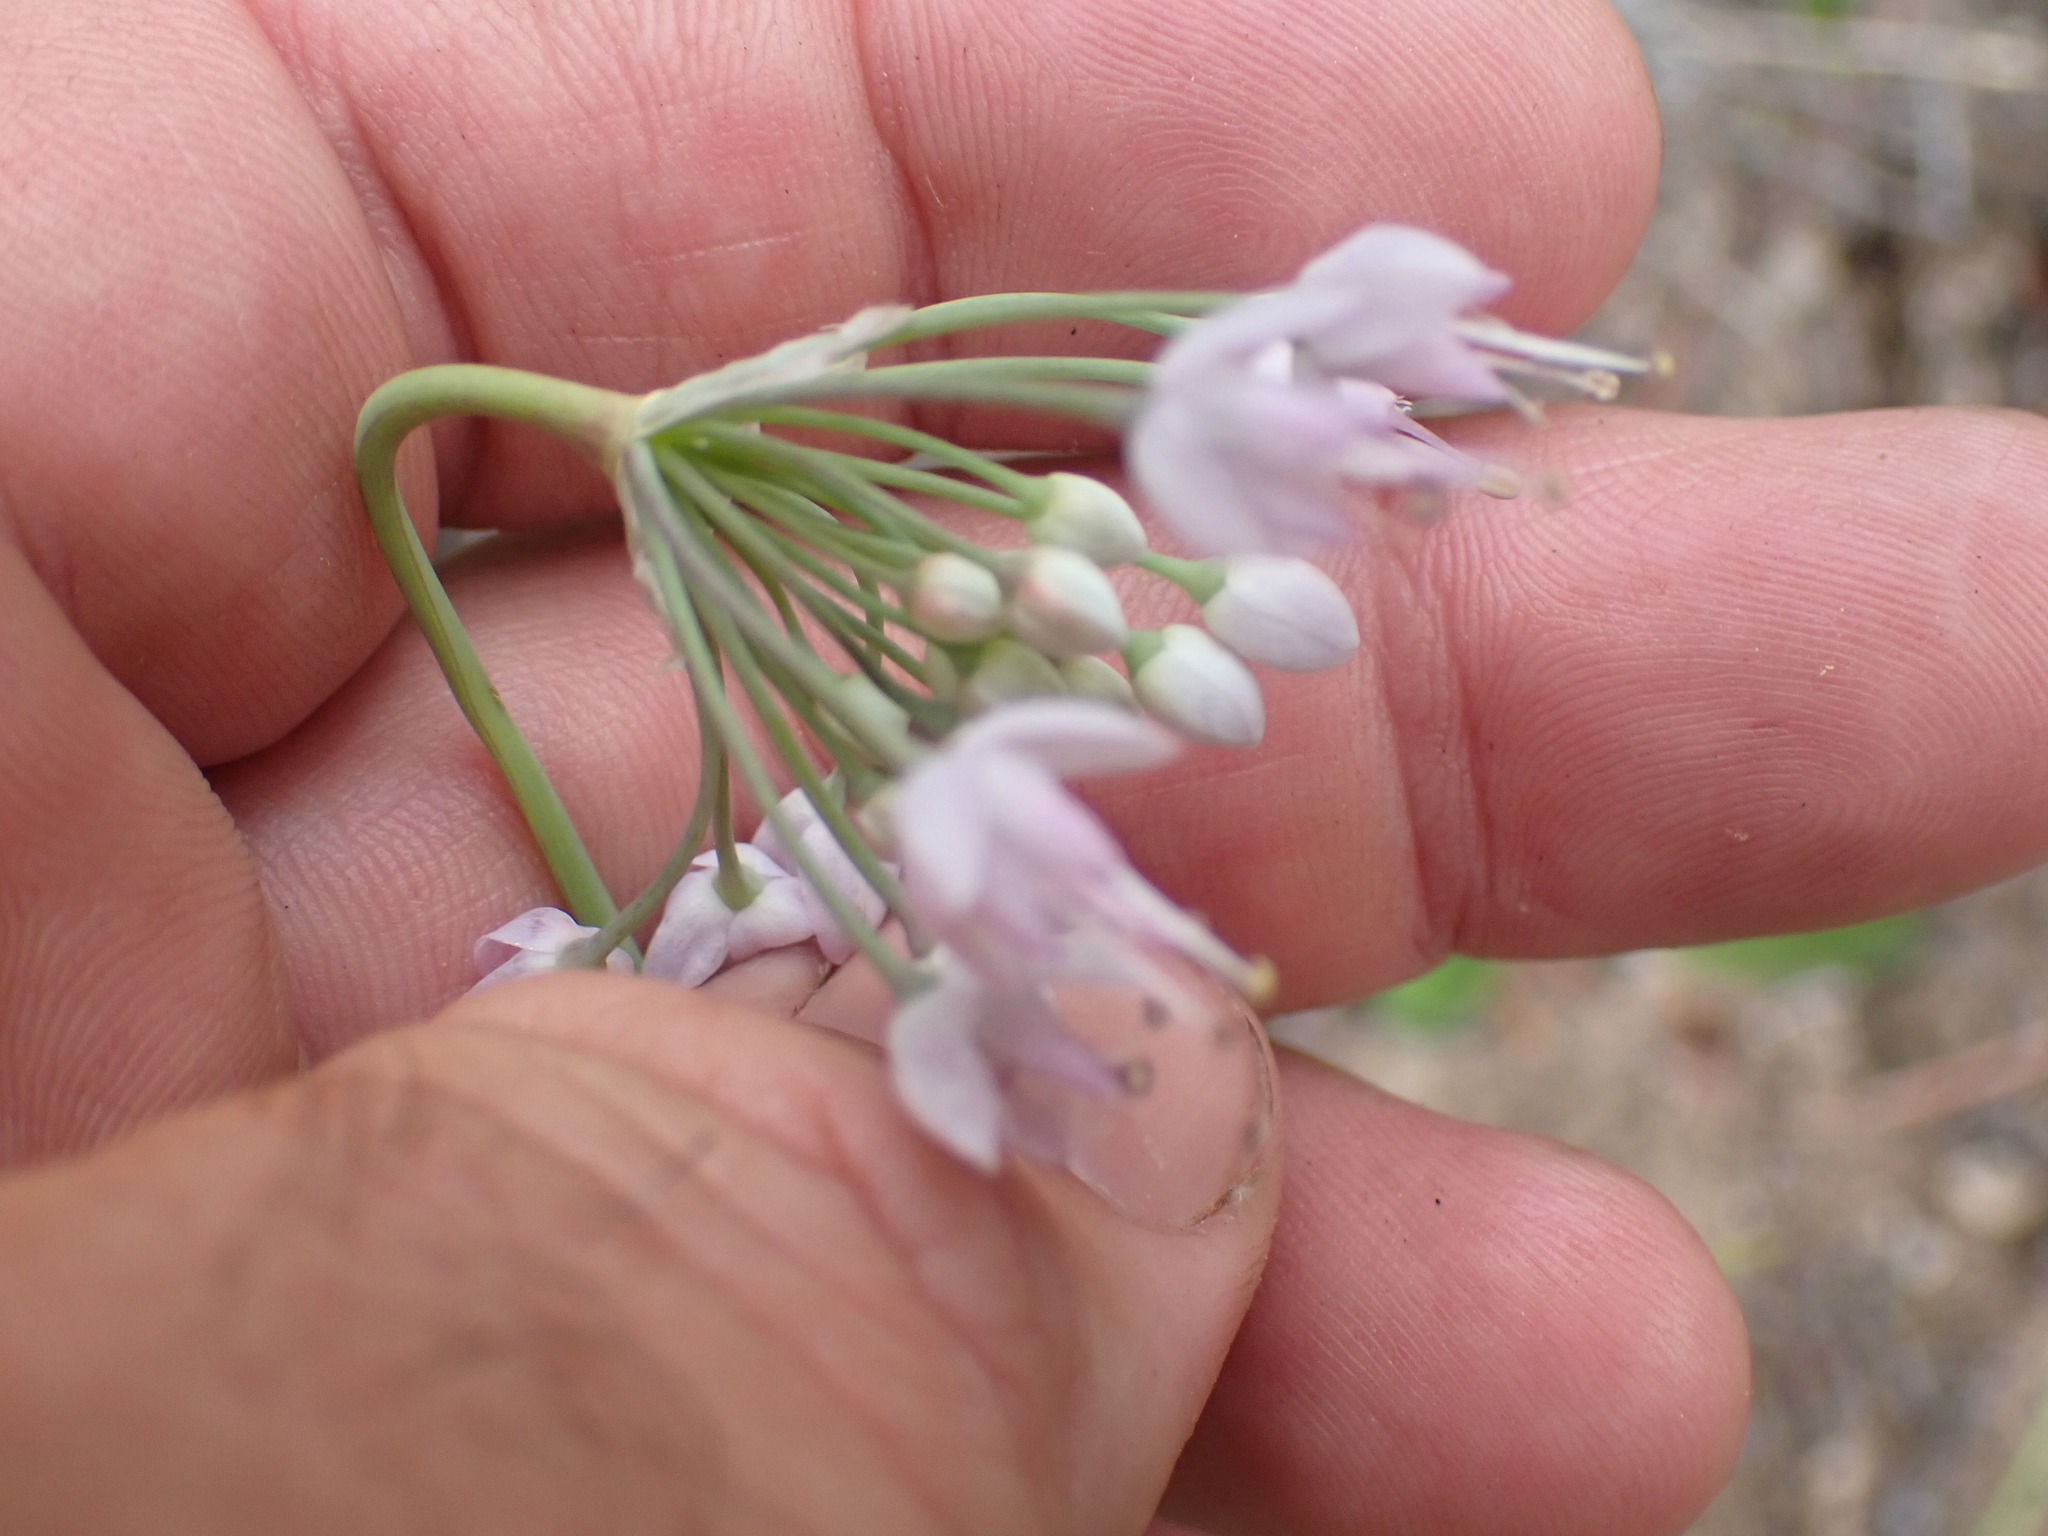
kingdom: Plantae
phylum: Tracheophyta
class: Liliopsida
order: Asparagales
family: Amaryllidaceae
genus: Allium
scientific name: Allium cernuum
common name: Nodding onion
